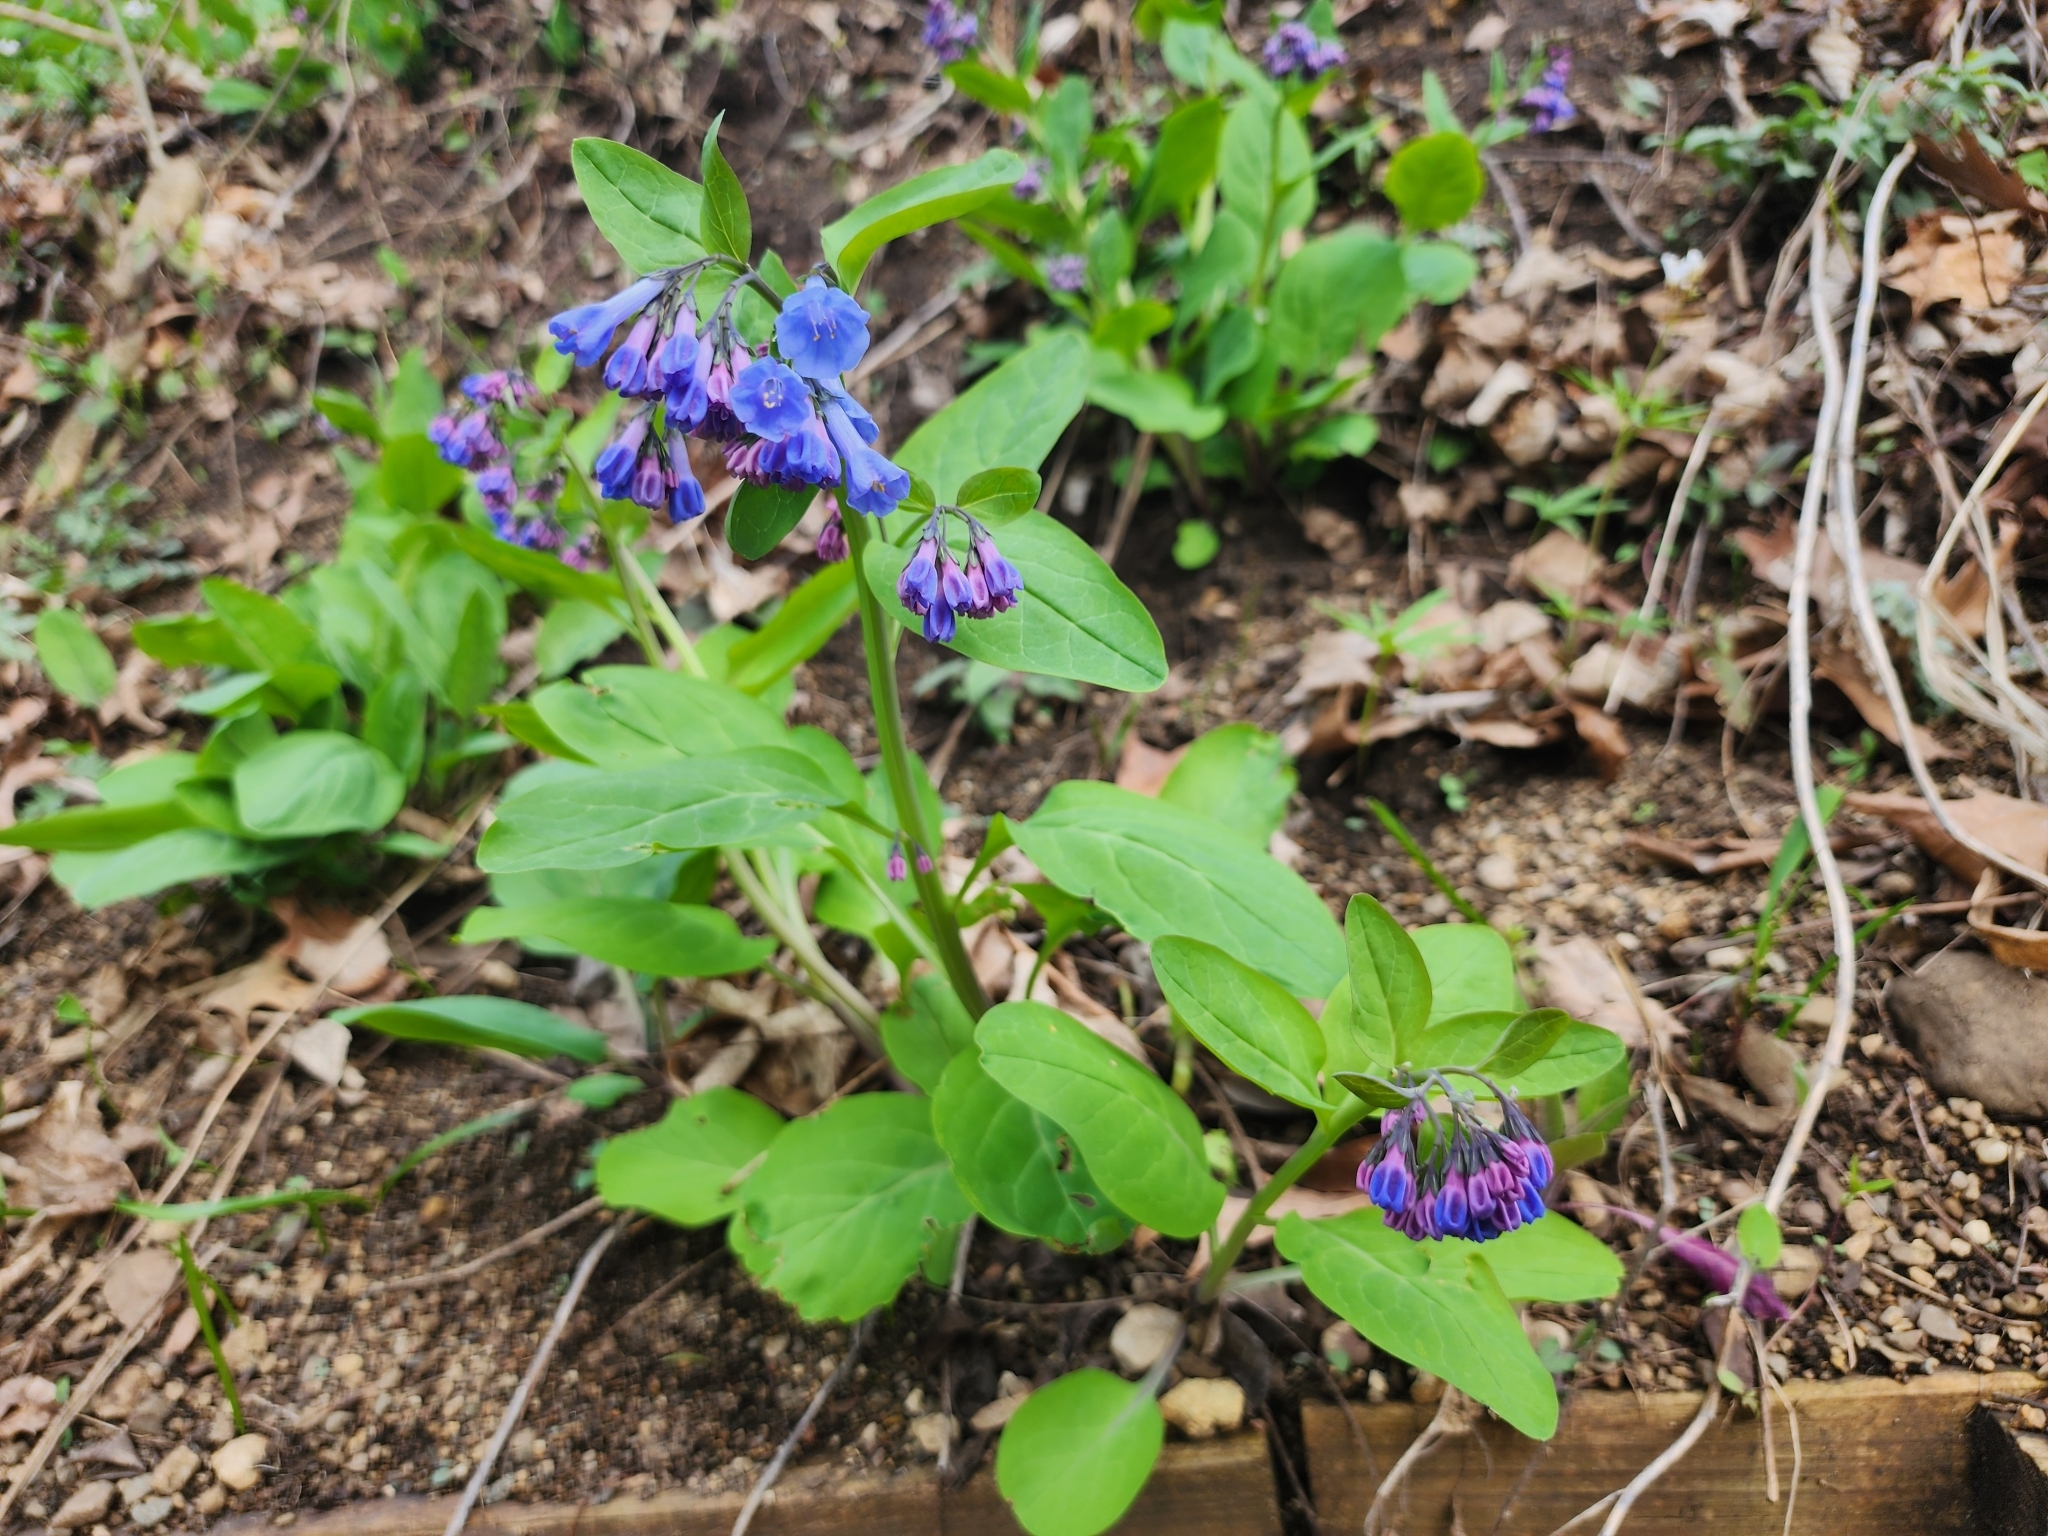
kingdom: Plantae
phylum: Tracheophyta
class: Magnoliopsida
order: Boraginales
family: Boraginaceae
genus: Mertensia
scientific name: Mertensia virginica
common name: Virginia bluebells
